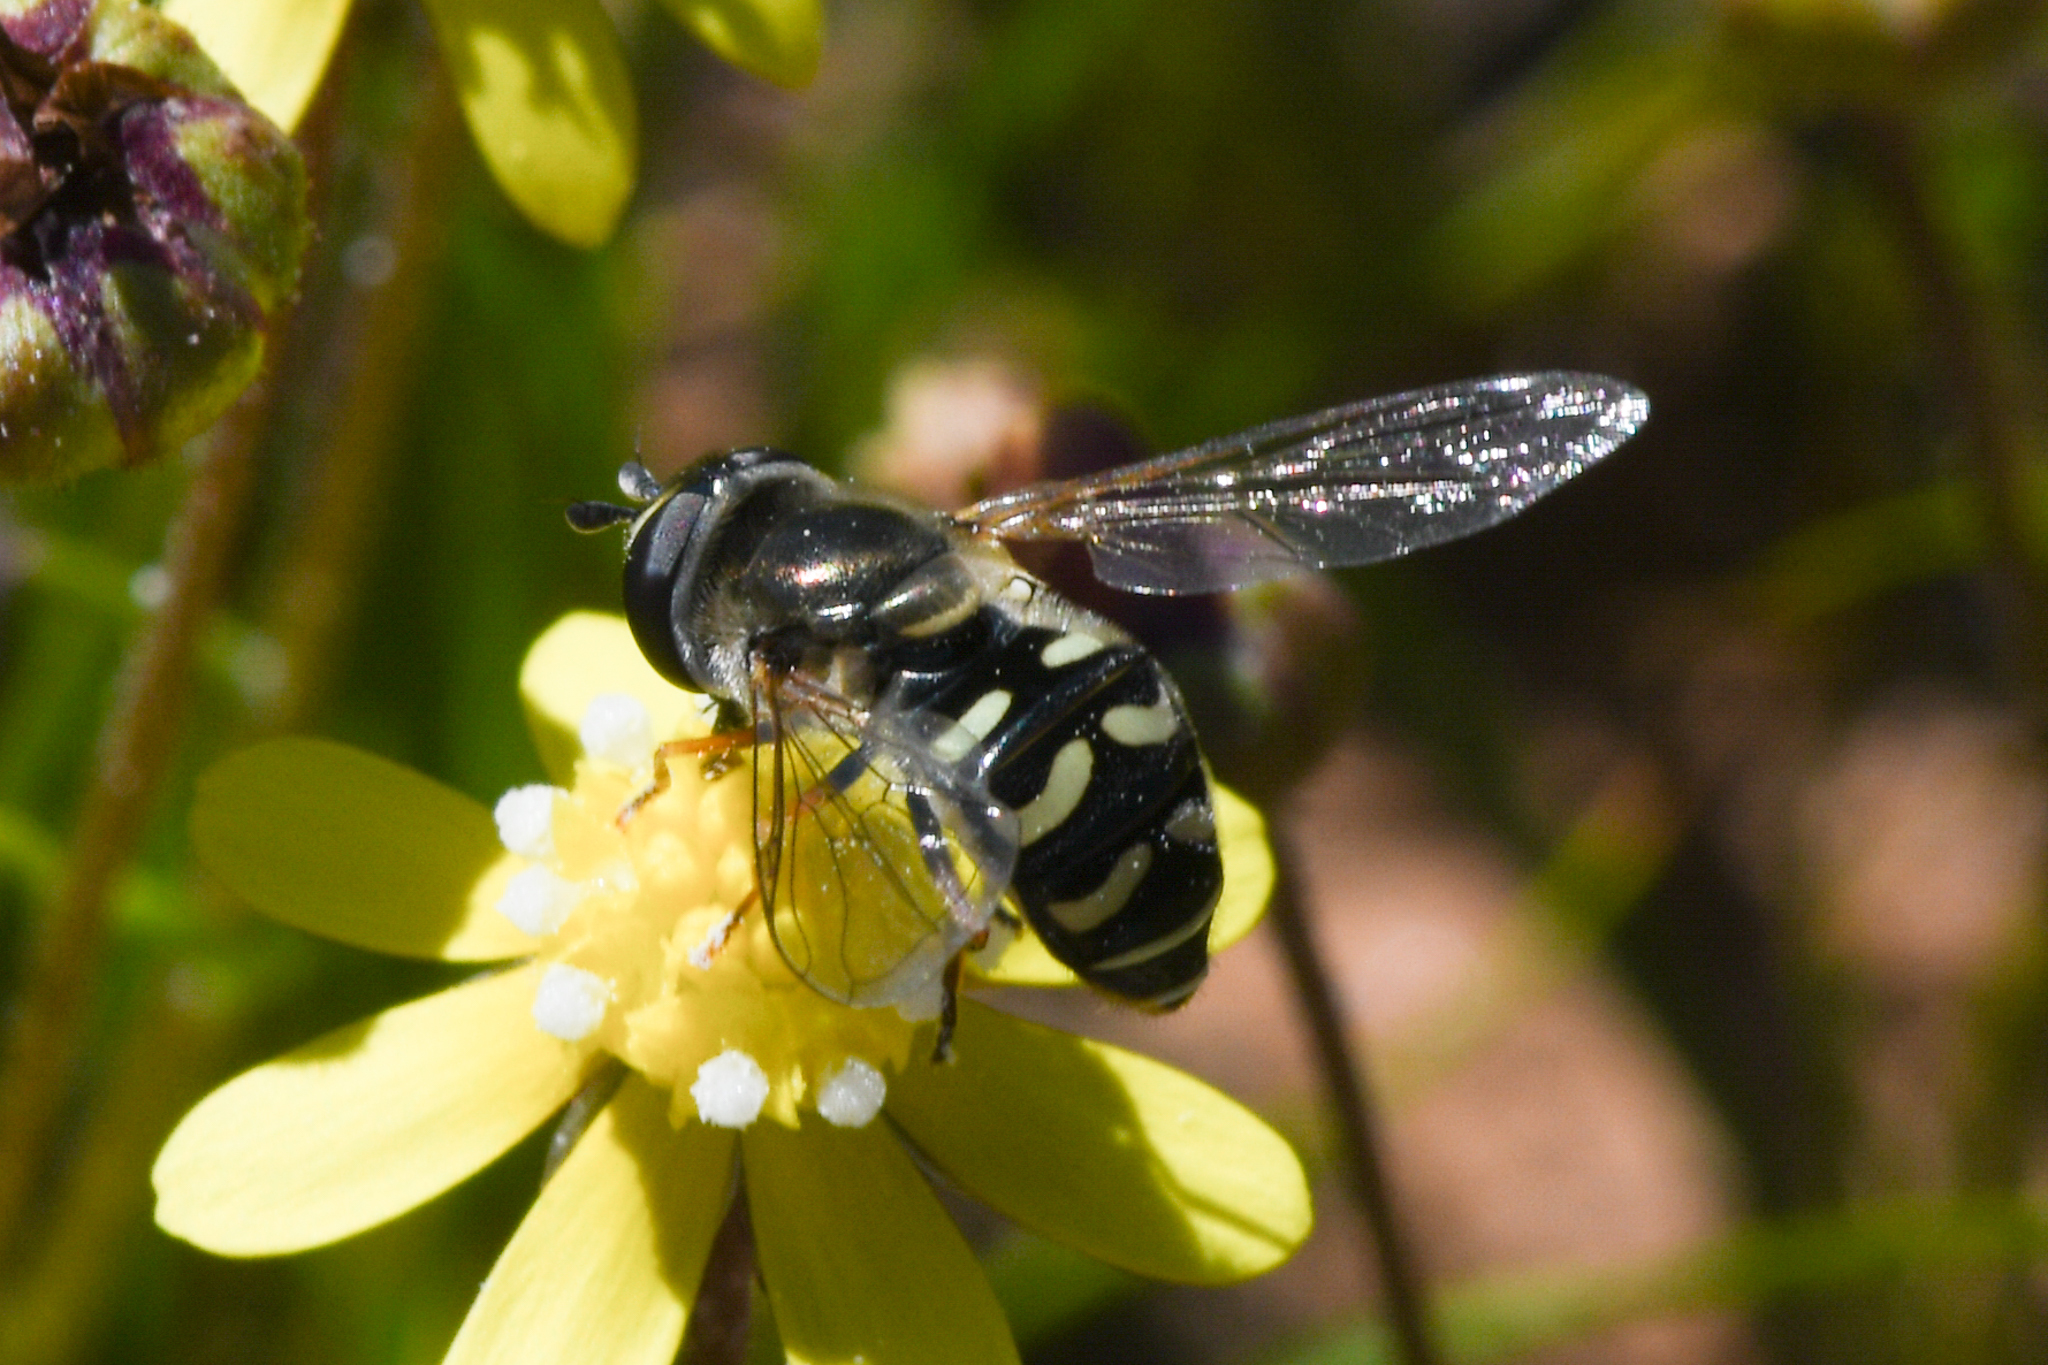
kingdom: Animalia
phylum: Arthropoda
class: Insecta
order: Diptera
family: Syrphidae
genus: Eupeodes
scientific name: Eupeodes volucris
